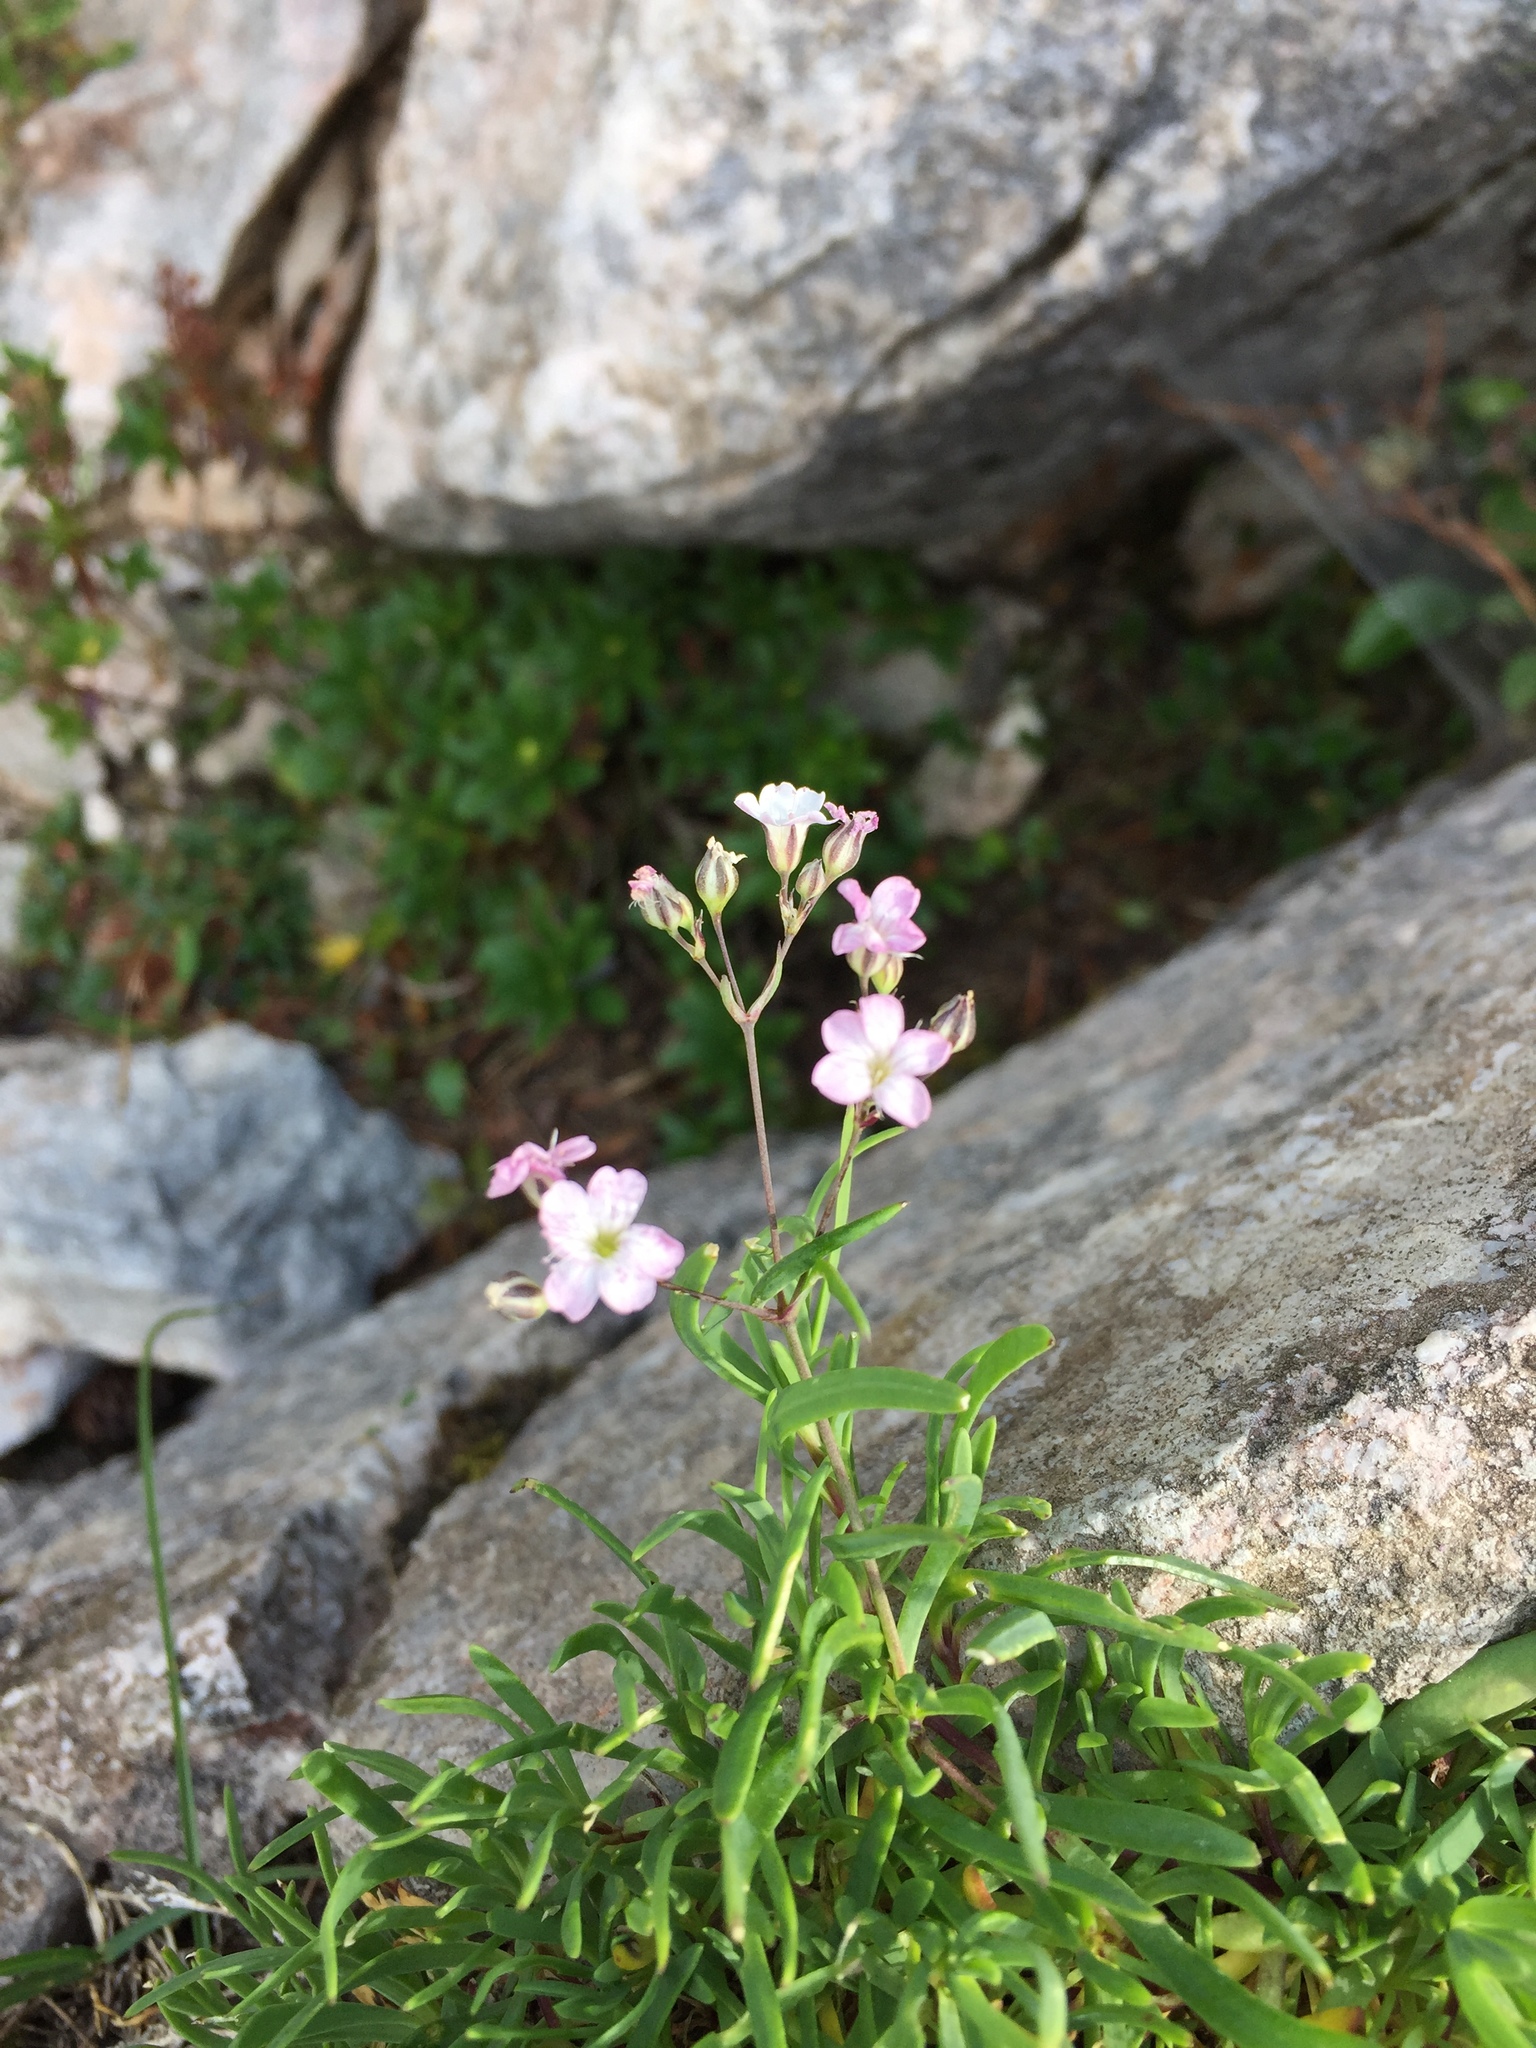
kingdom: Plantae
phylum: Tracheophyta
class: Magnoliopsida
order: Caryophyllales
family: Caryophyllaceae
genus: Gypsophila
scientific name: Gypsophila repens
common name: Creeping baby's-breath
